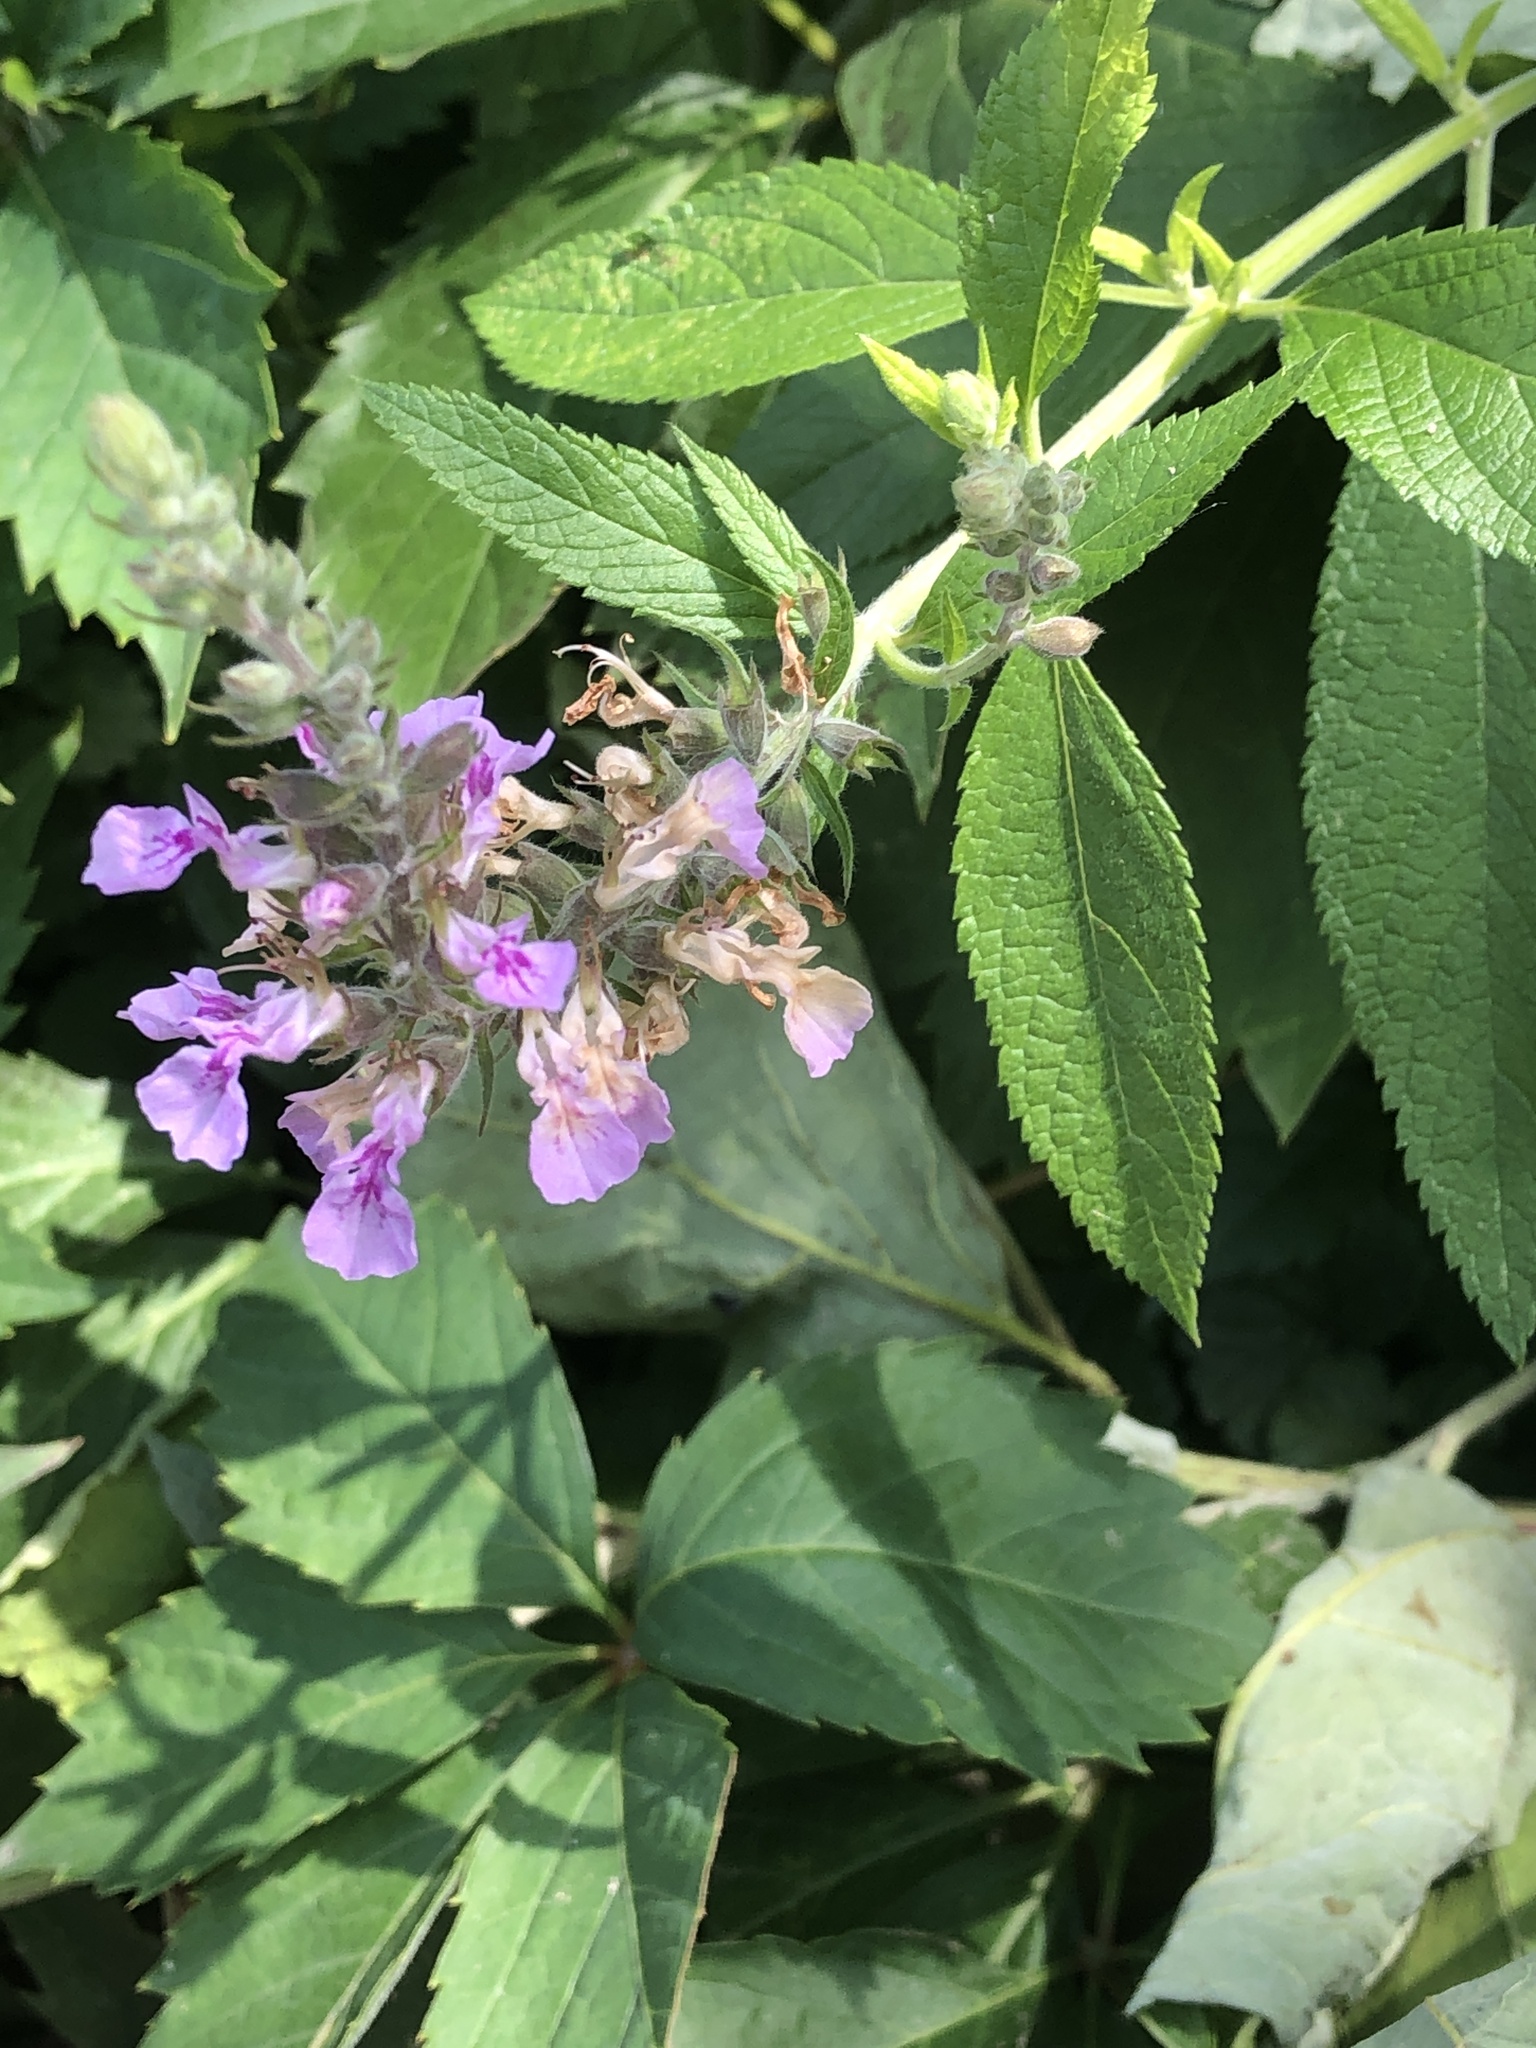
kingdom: Plantae
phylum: Tracheophyta
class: Magnoliopsida
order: Lamiales
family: Lamiaceae
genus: Teucrium
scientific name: Teucrium canadense
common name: American germander
